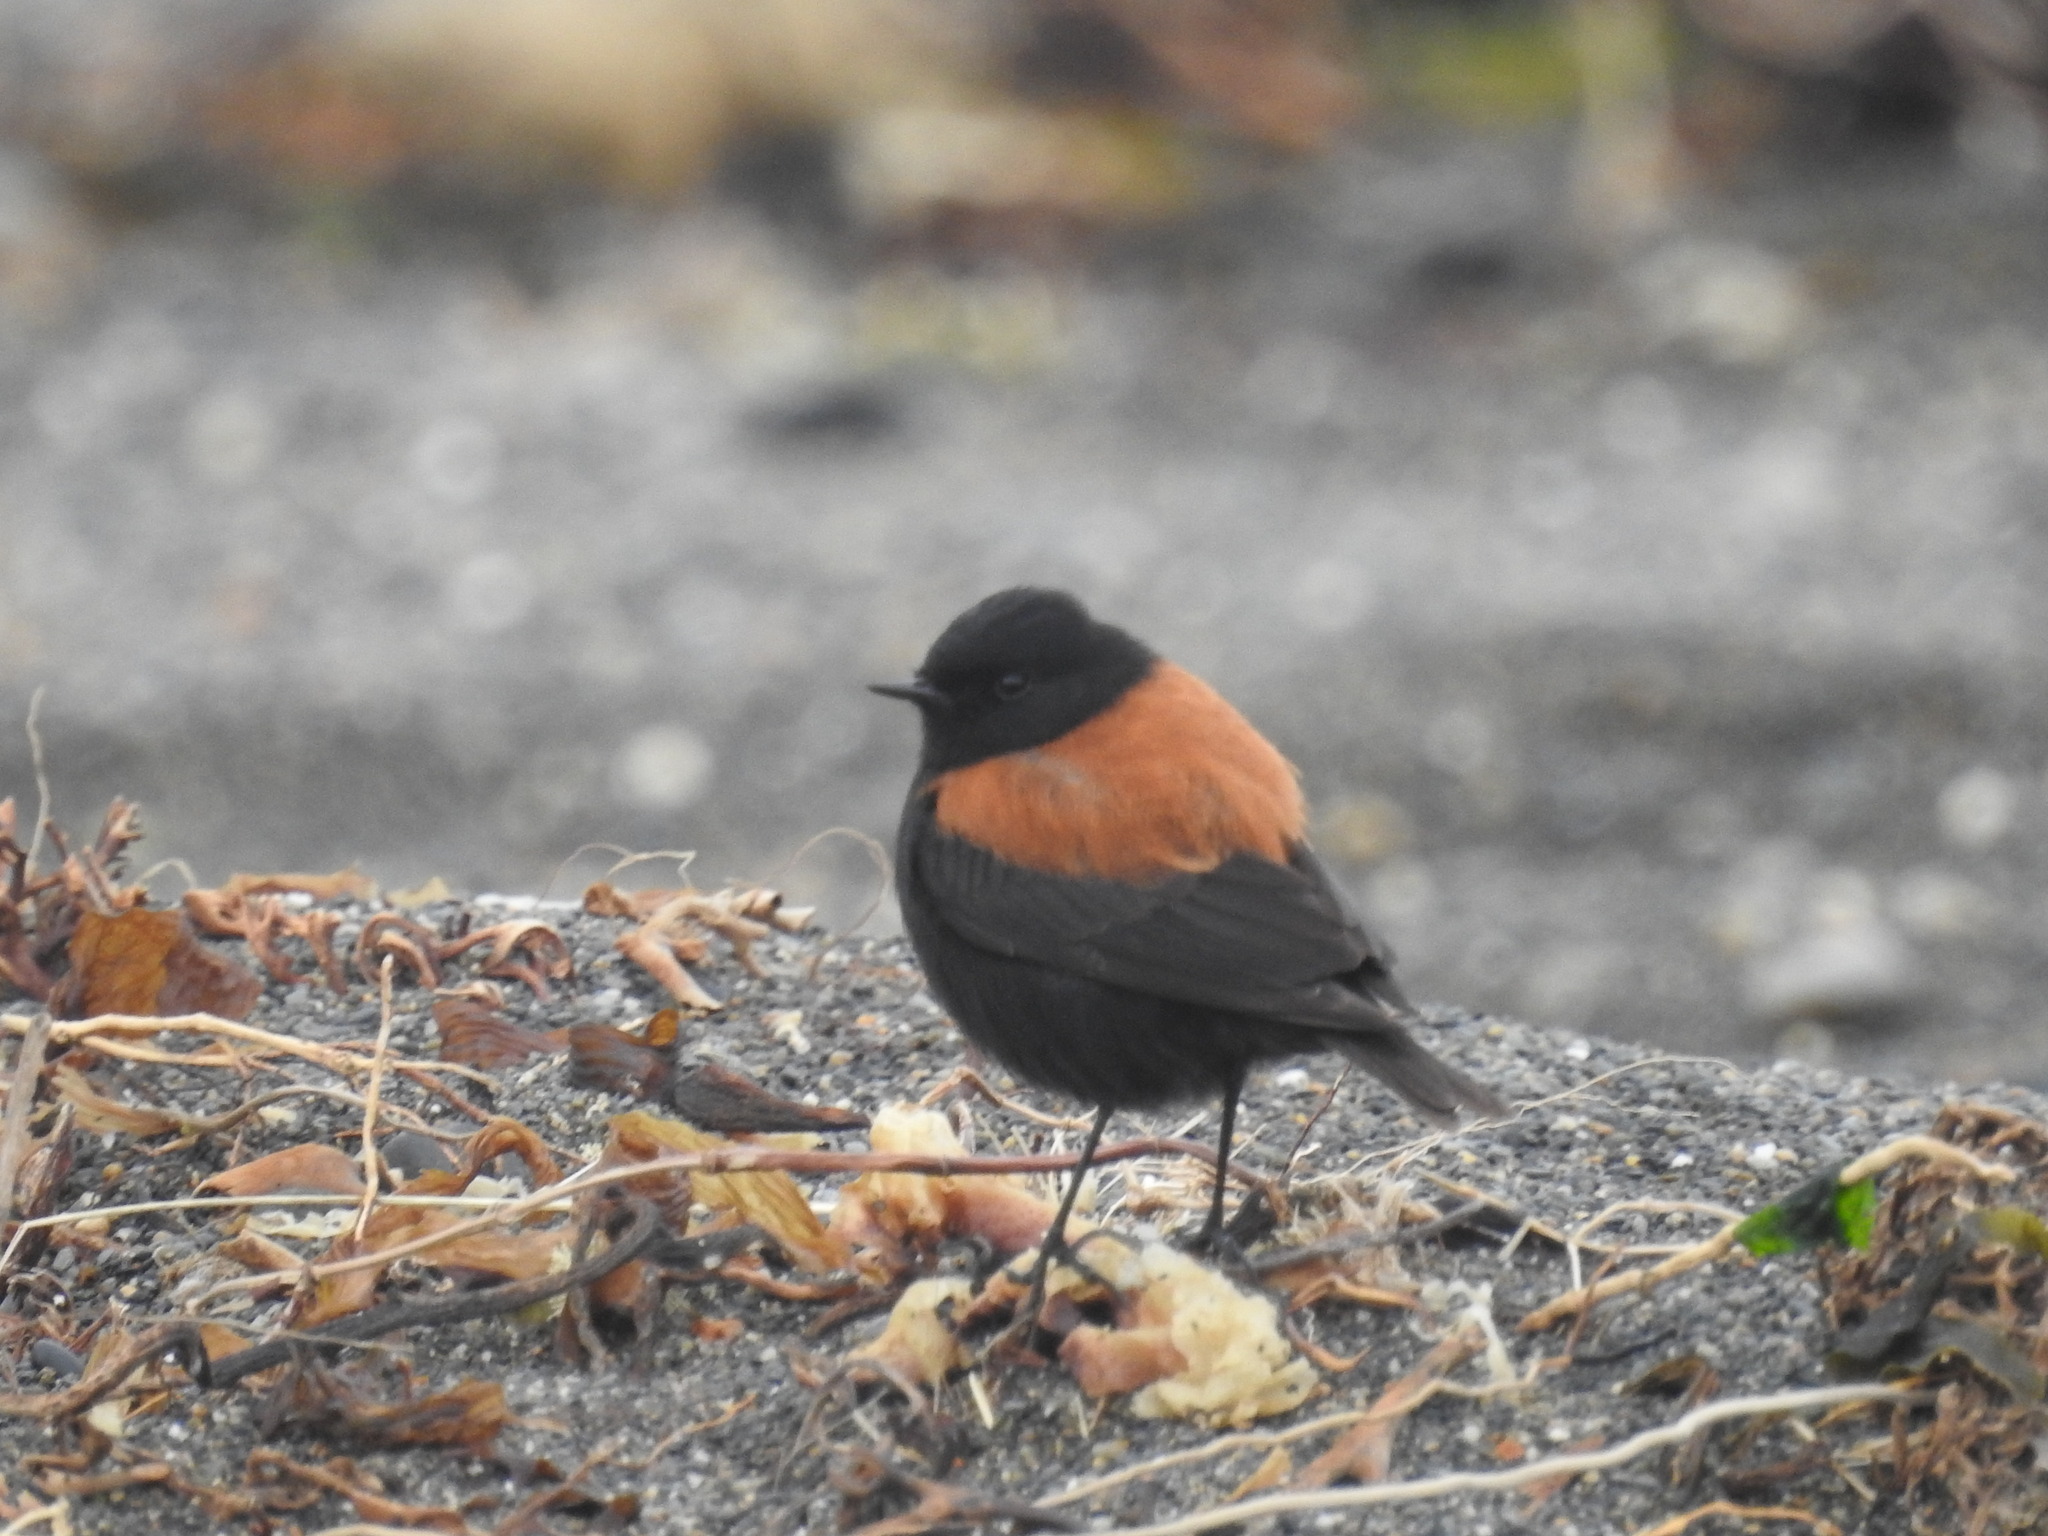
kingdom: Animalia
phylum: Chordata
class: Aves
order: Passeriformes
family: Tyrannidae
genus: Lessonia
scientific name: Lessonia rufa
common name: Austral negrito
